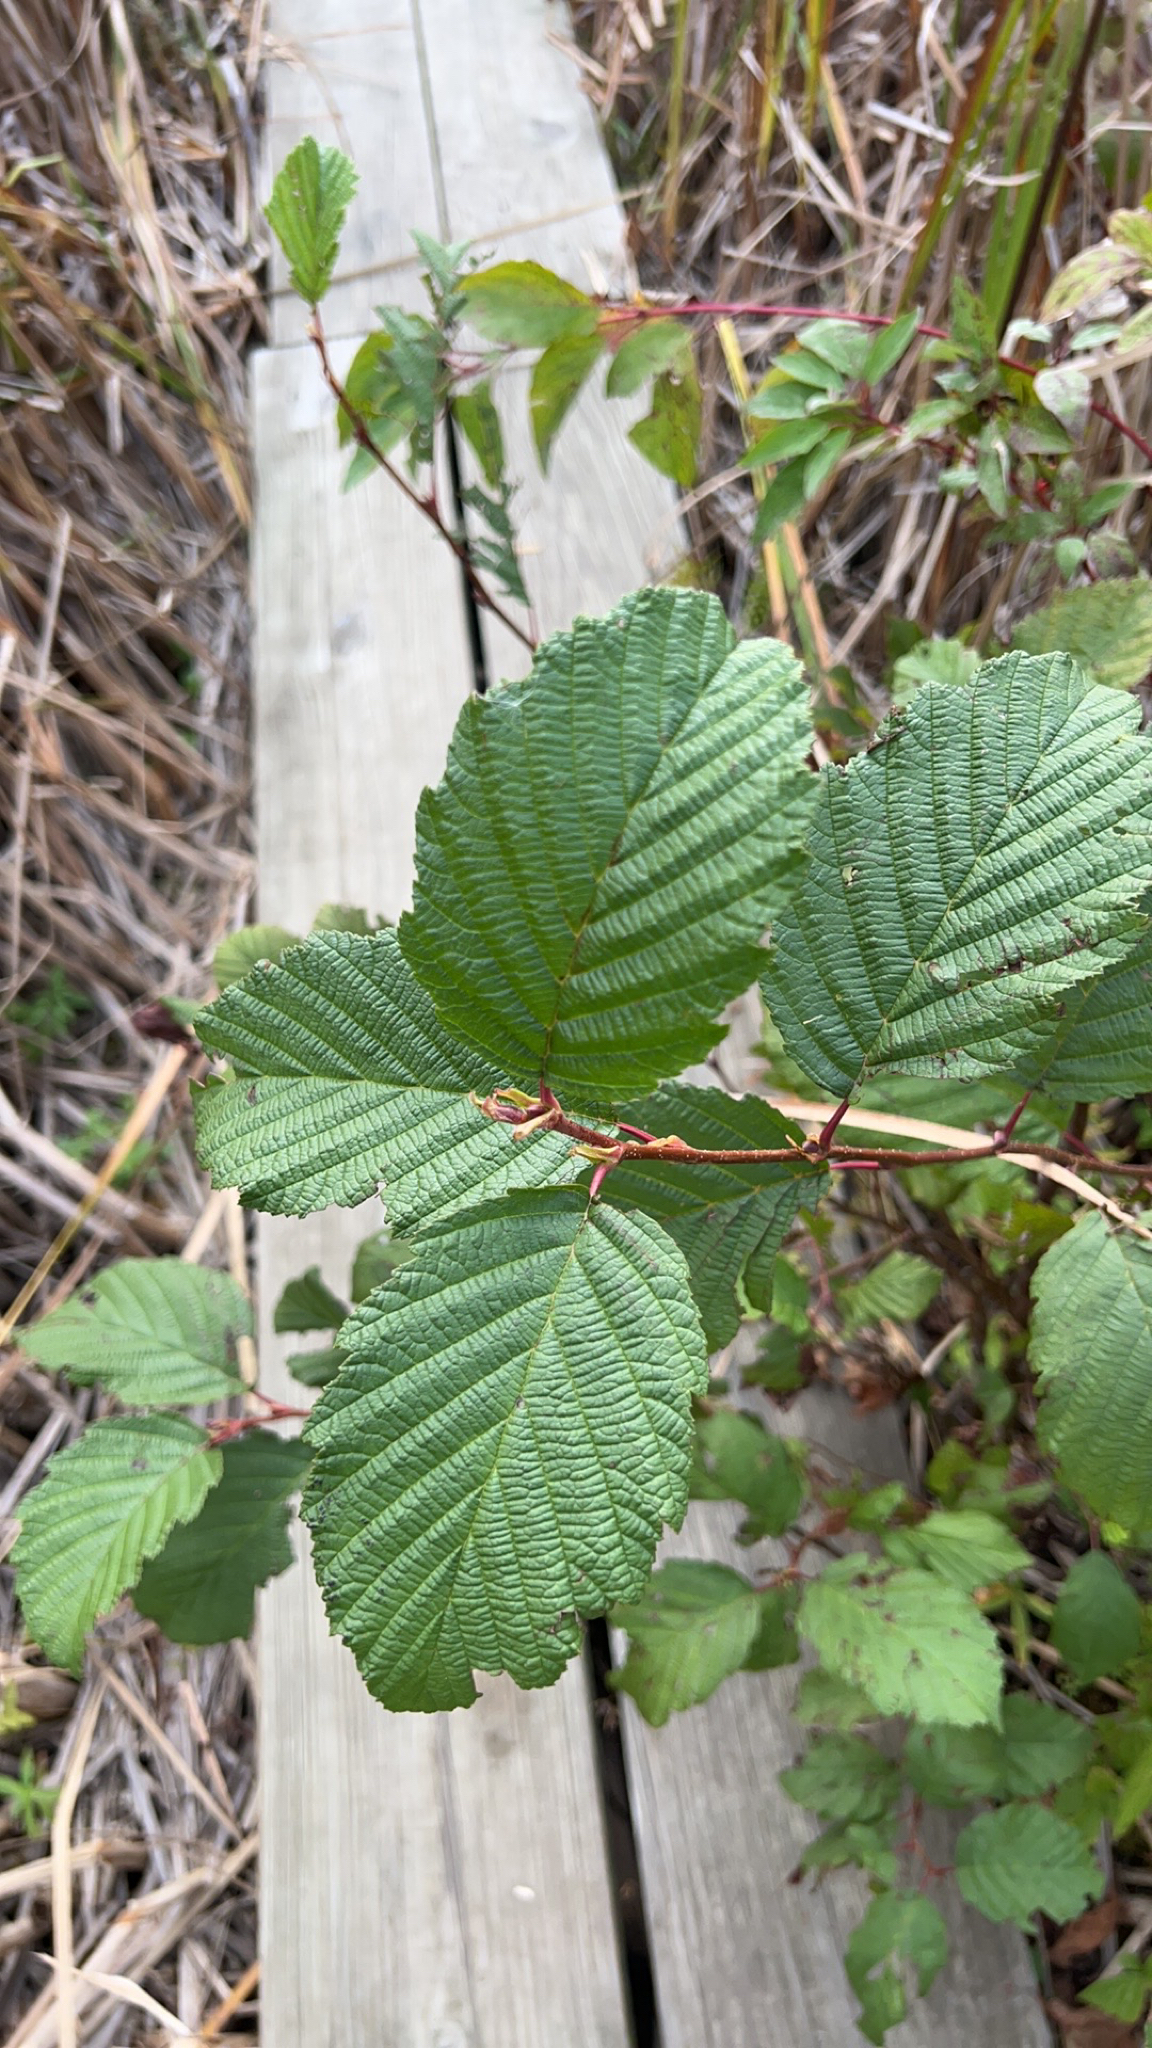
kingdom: Plantae
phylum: Tracheophyta
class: Magnoliopsida
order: Fagales
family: Betulaceae
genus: Alnus
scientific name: Alnus incana
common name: Grey alder
